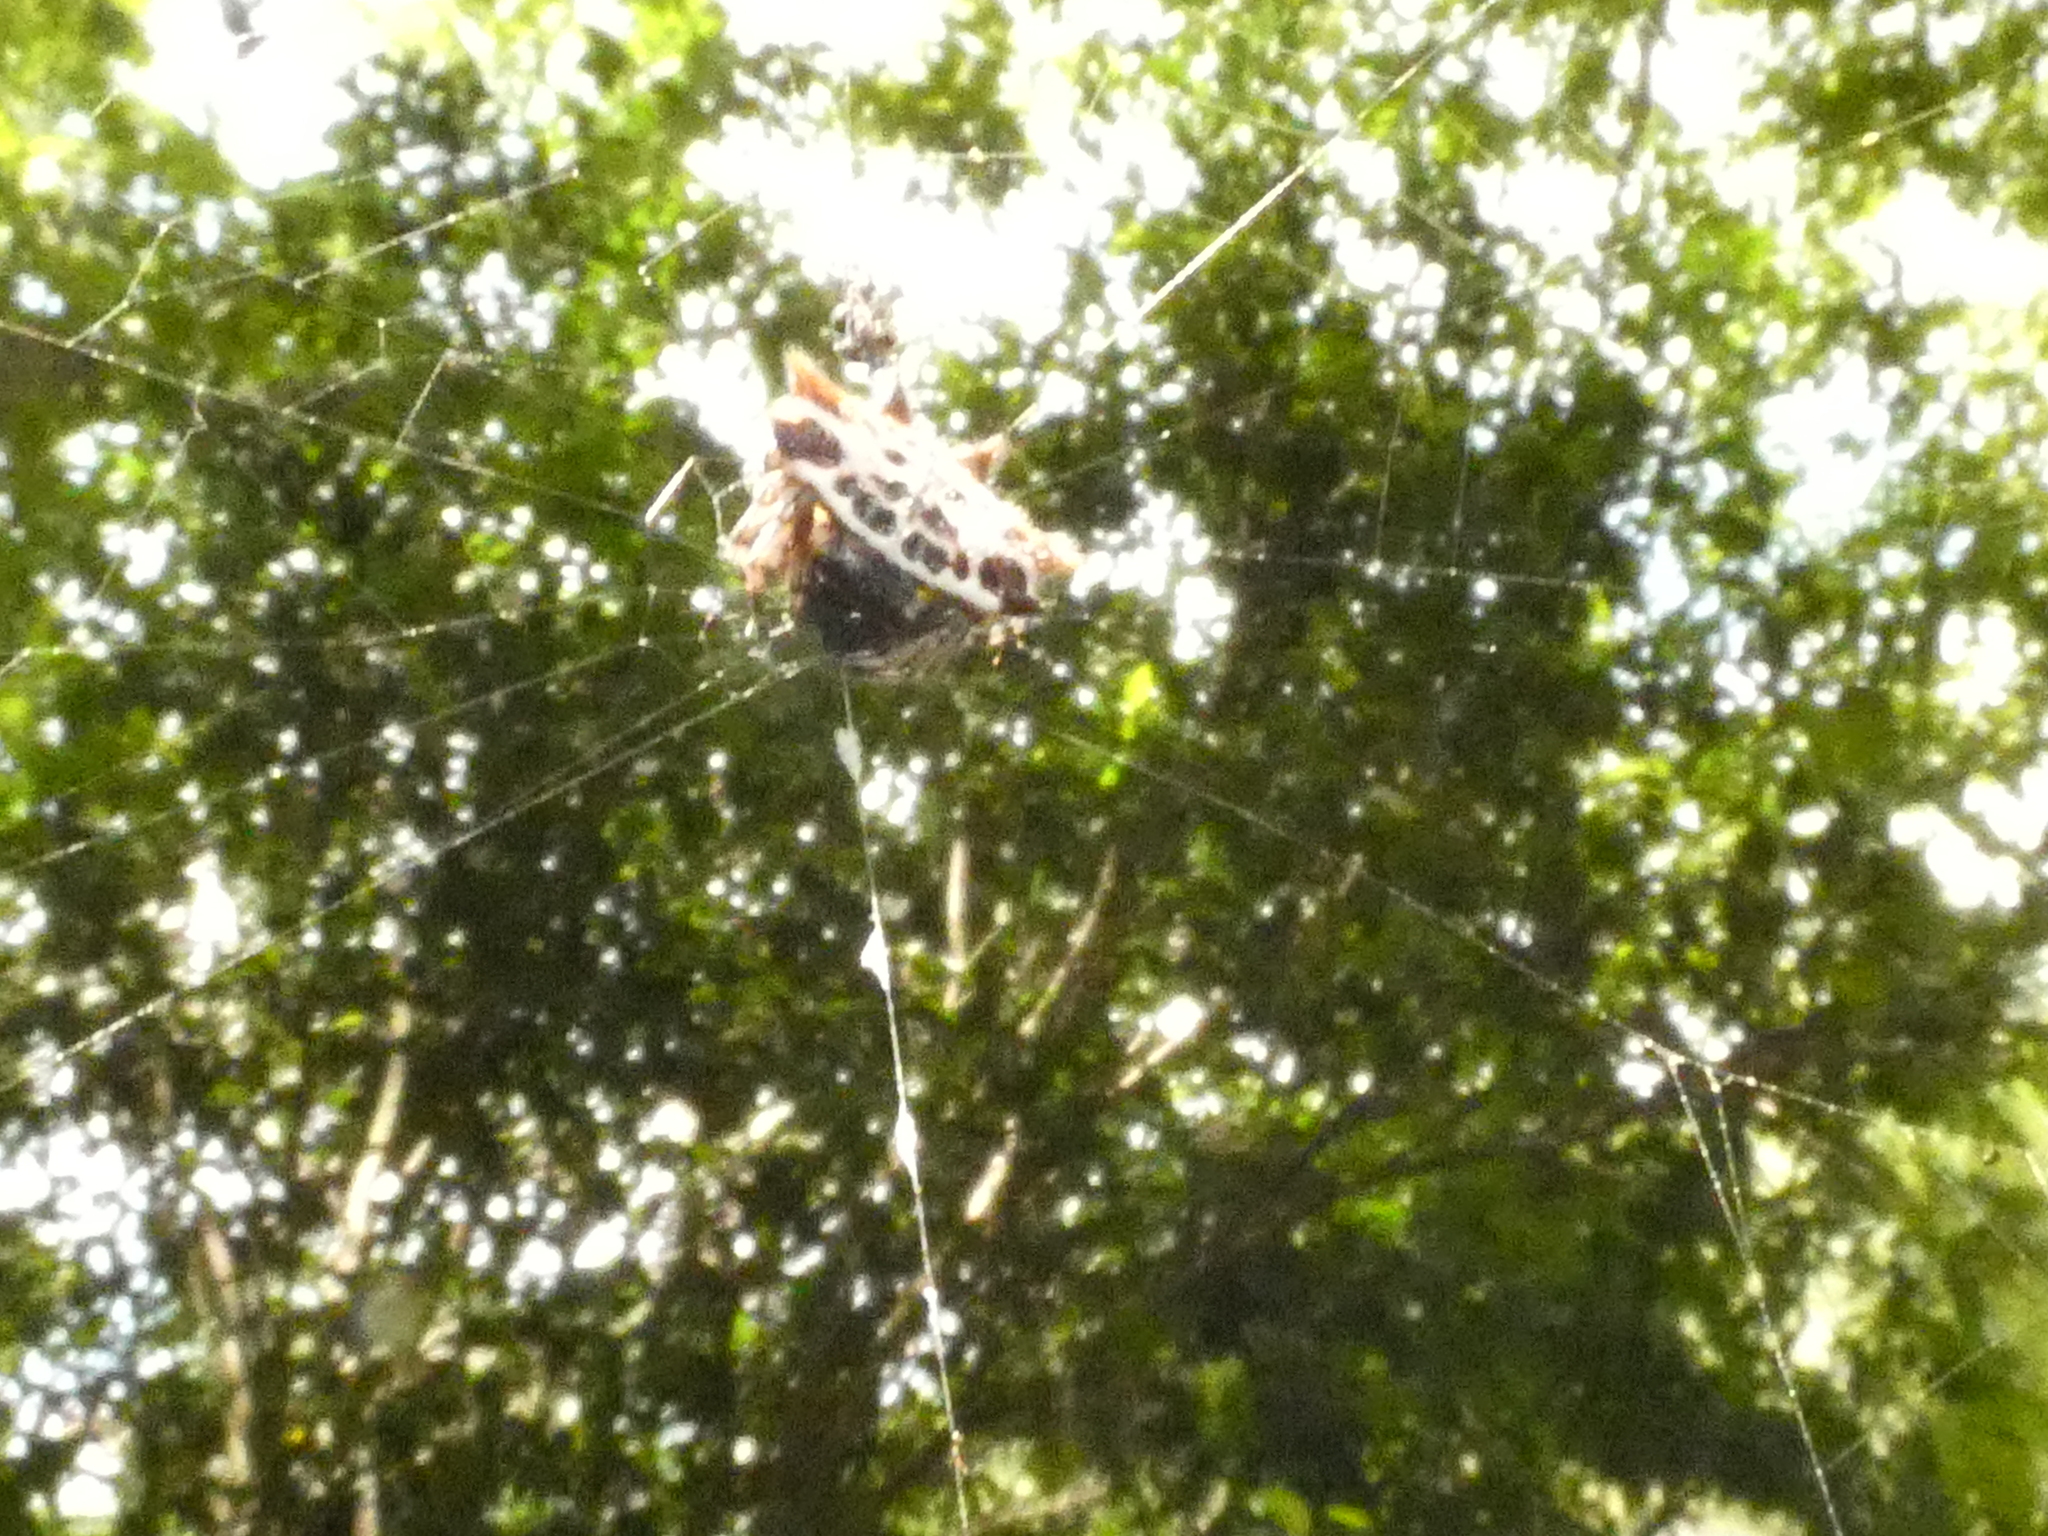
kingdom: Animalia
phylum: Arthropoda
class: Arachnida
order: Araneae
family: Araneidae
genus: Gasteracantha
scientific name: Gasteracantha cancriformis
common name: Orb weavers
